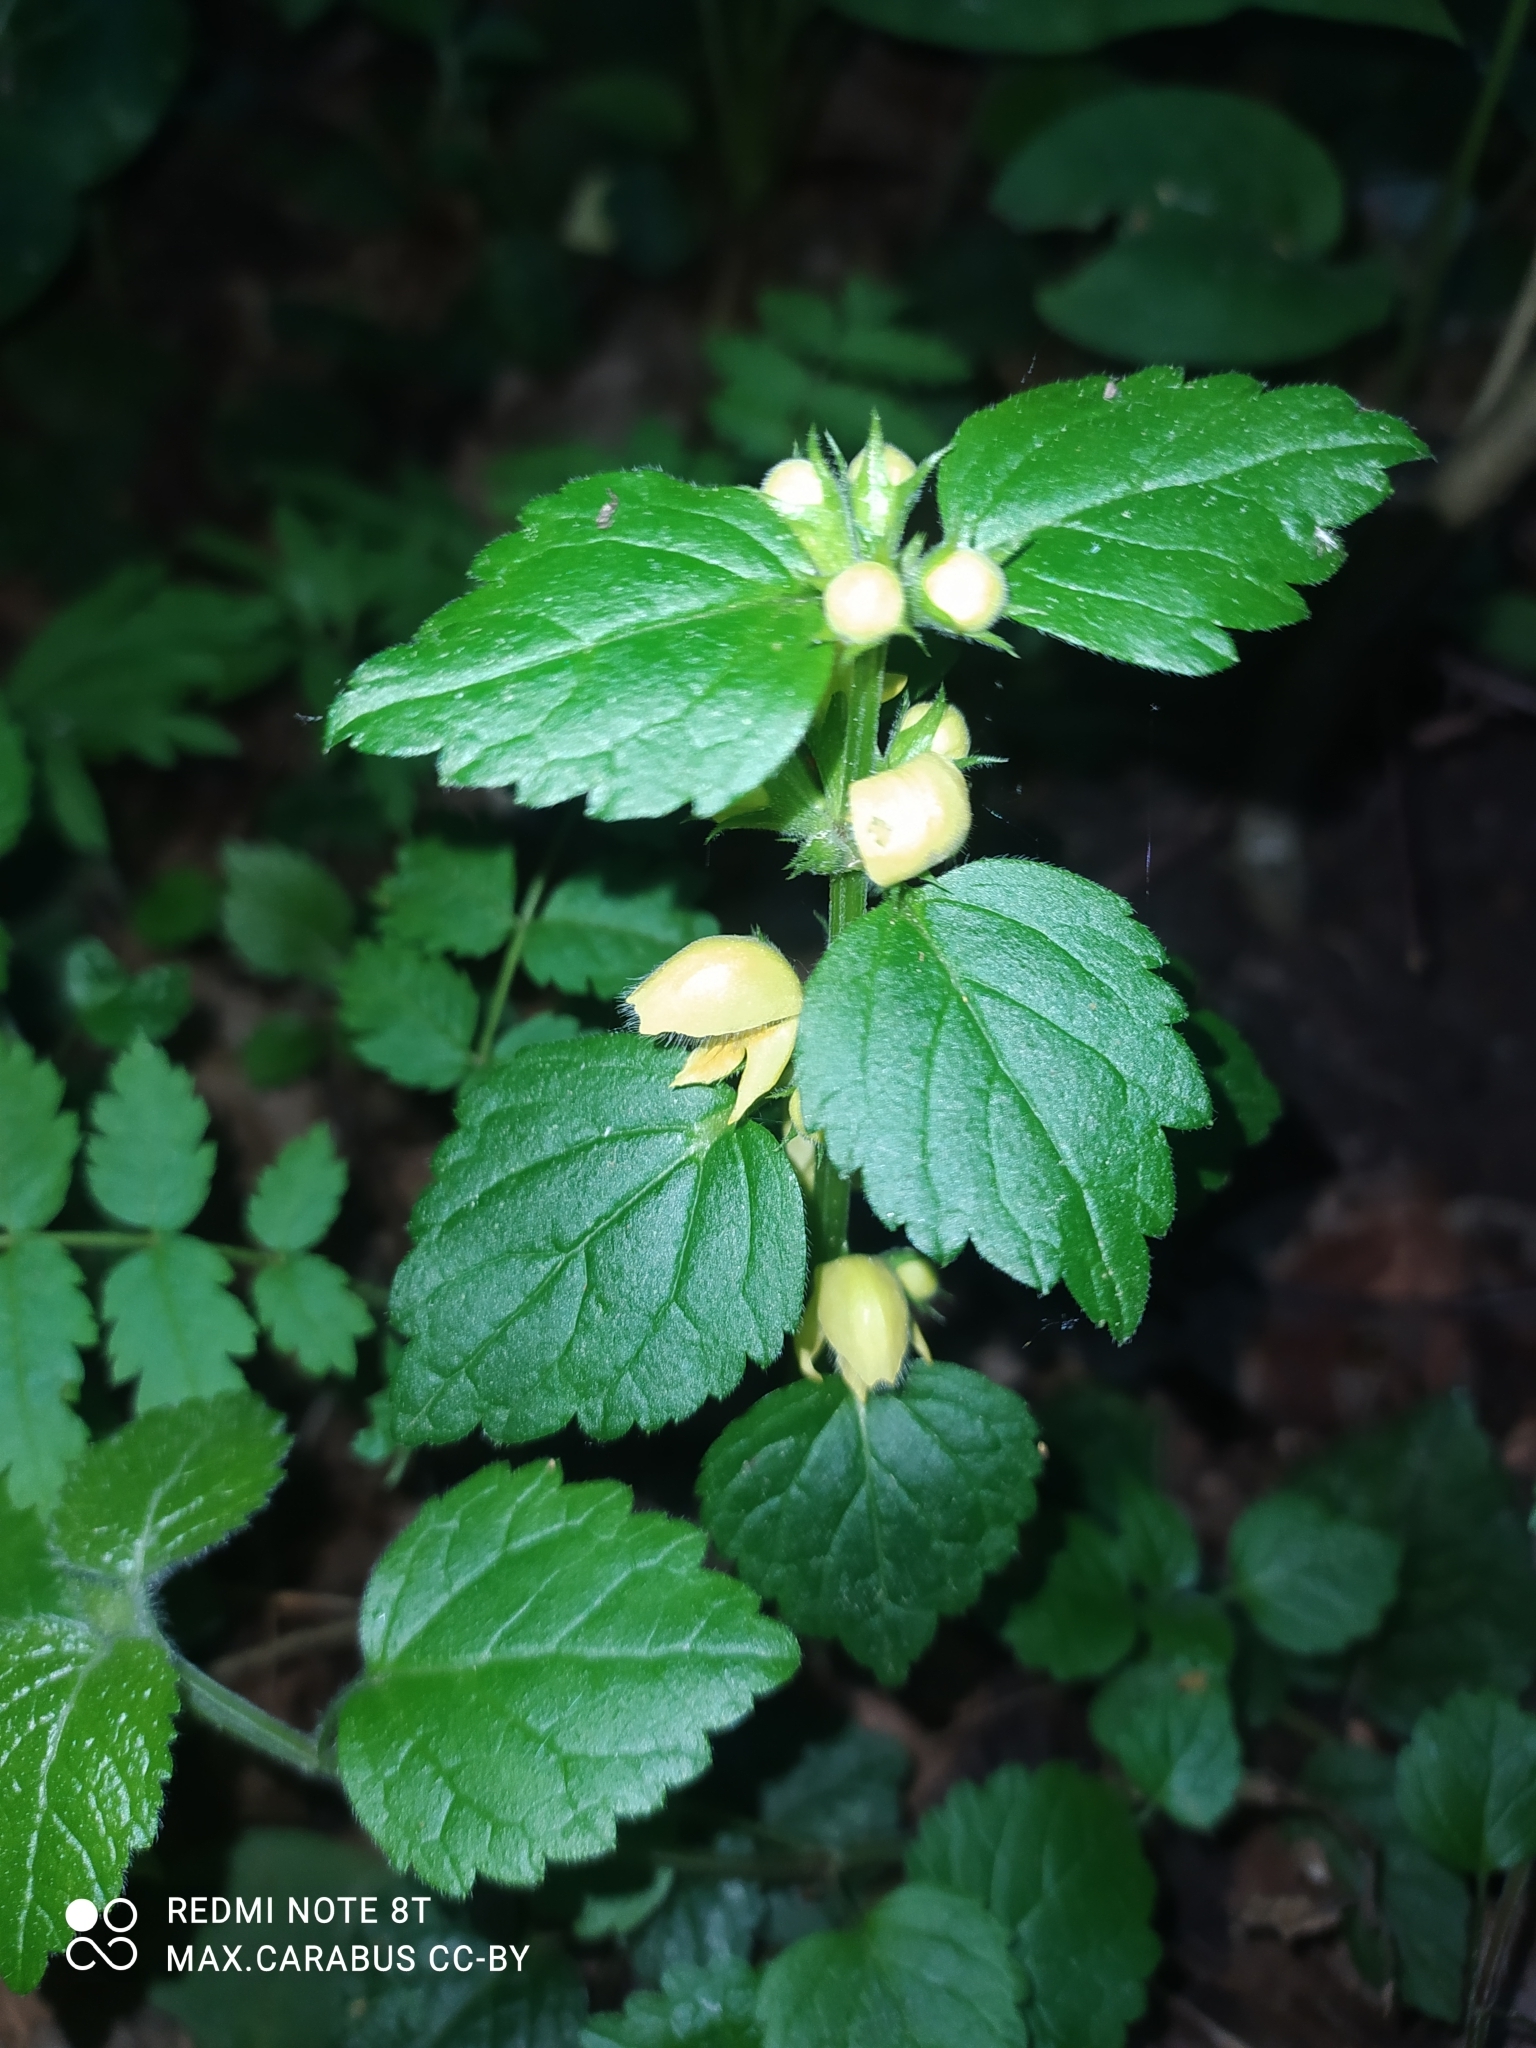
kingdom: Plantae
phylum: Tracheophyta
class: Magnoliopsida
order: Lamiales
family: Lamiaceae
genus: Lamium
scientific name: Lamium galeobdolon
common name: Yellow archangel
